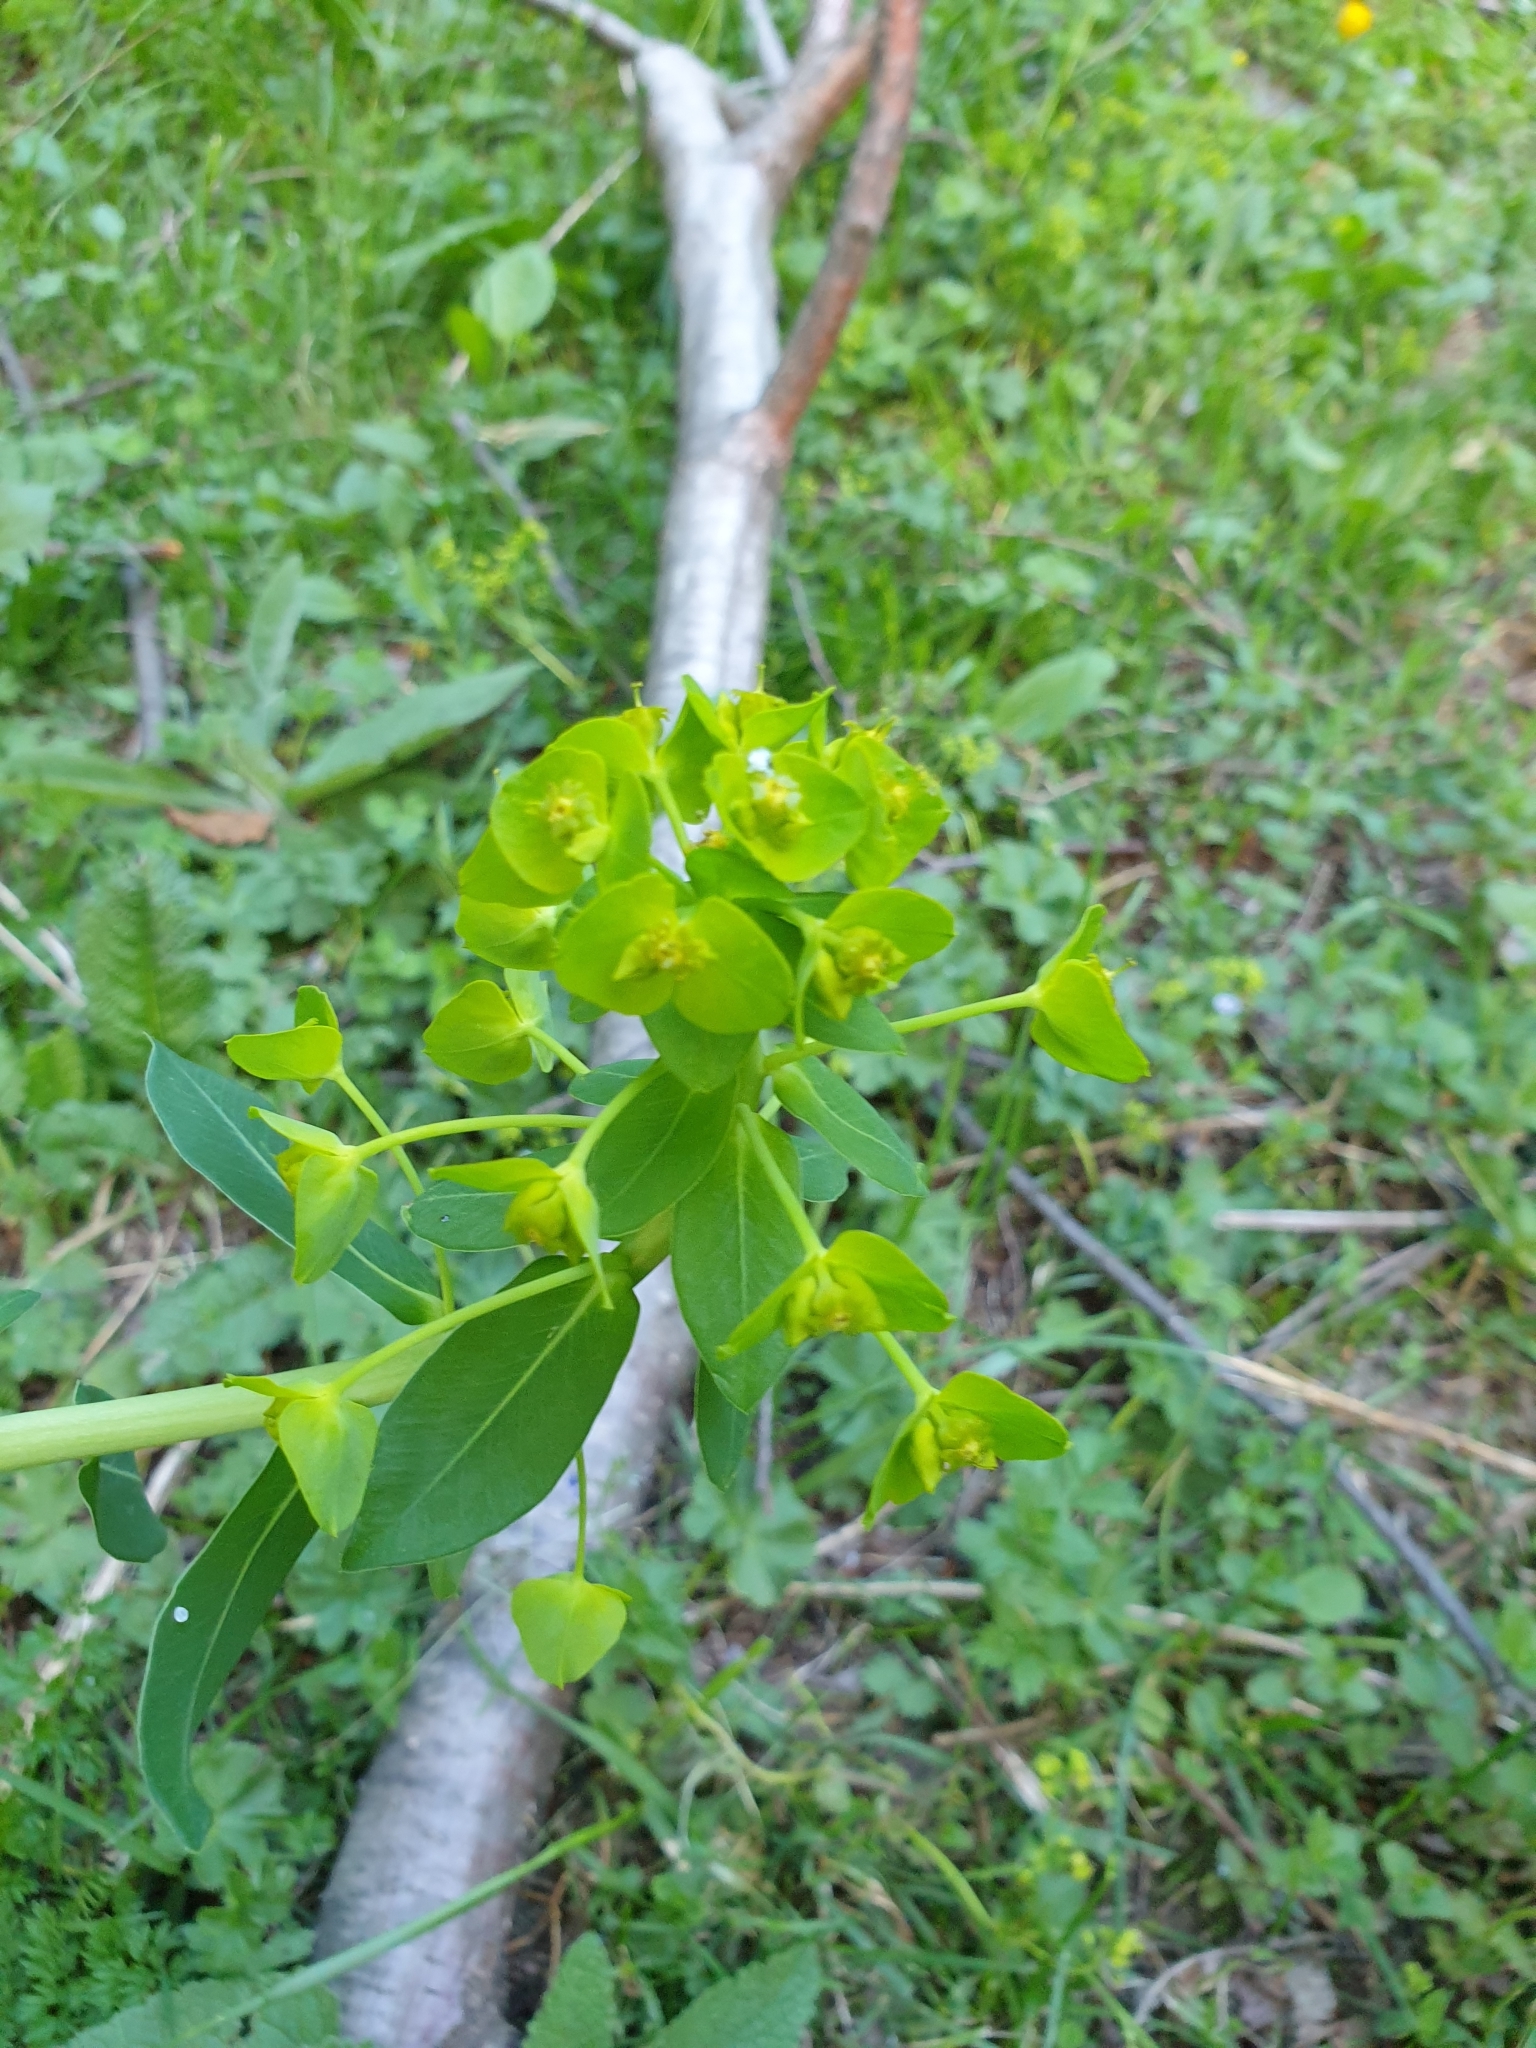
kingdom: Plantae
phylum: Tracheophyta
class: Magnoliopsida
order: Malpighiales
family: Euphorbiaceae
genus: Euphorbia
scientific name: Euphorbia iberica
